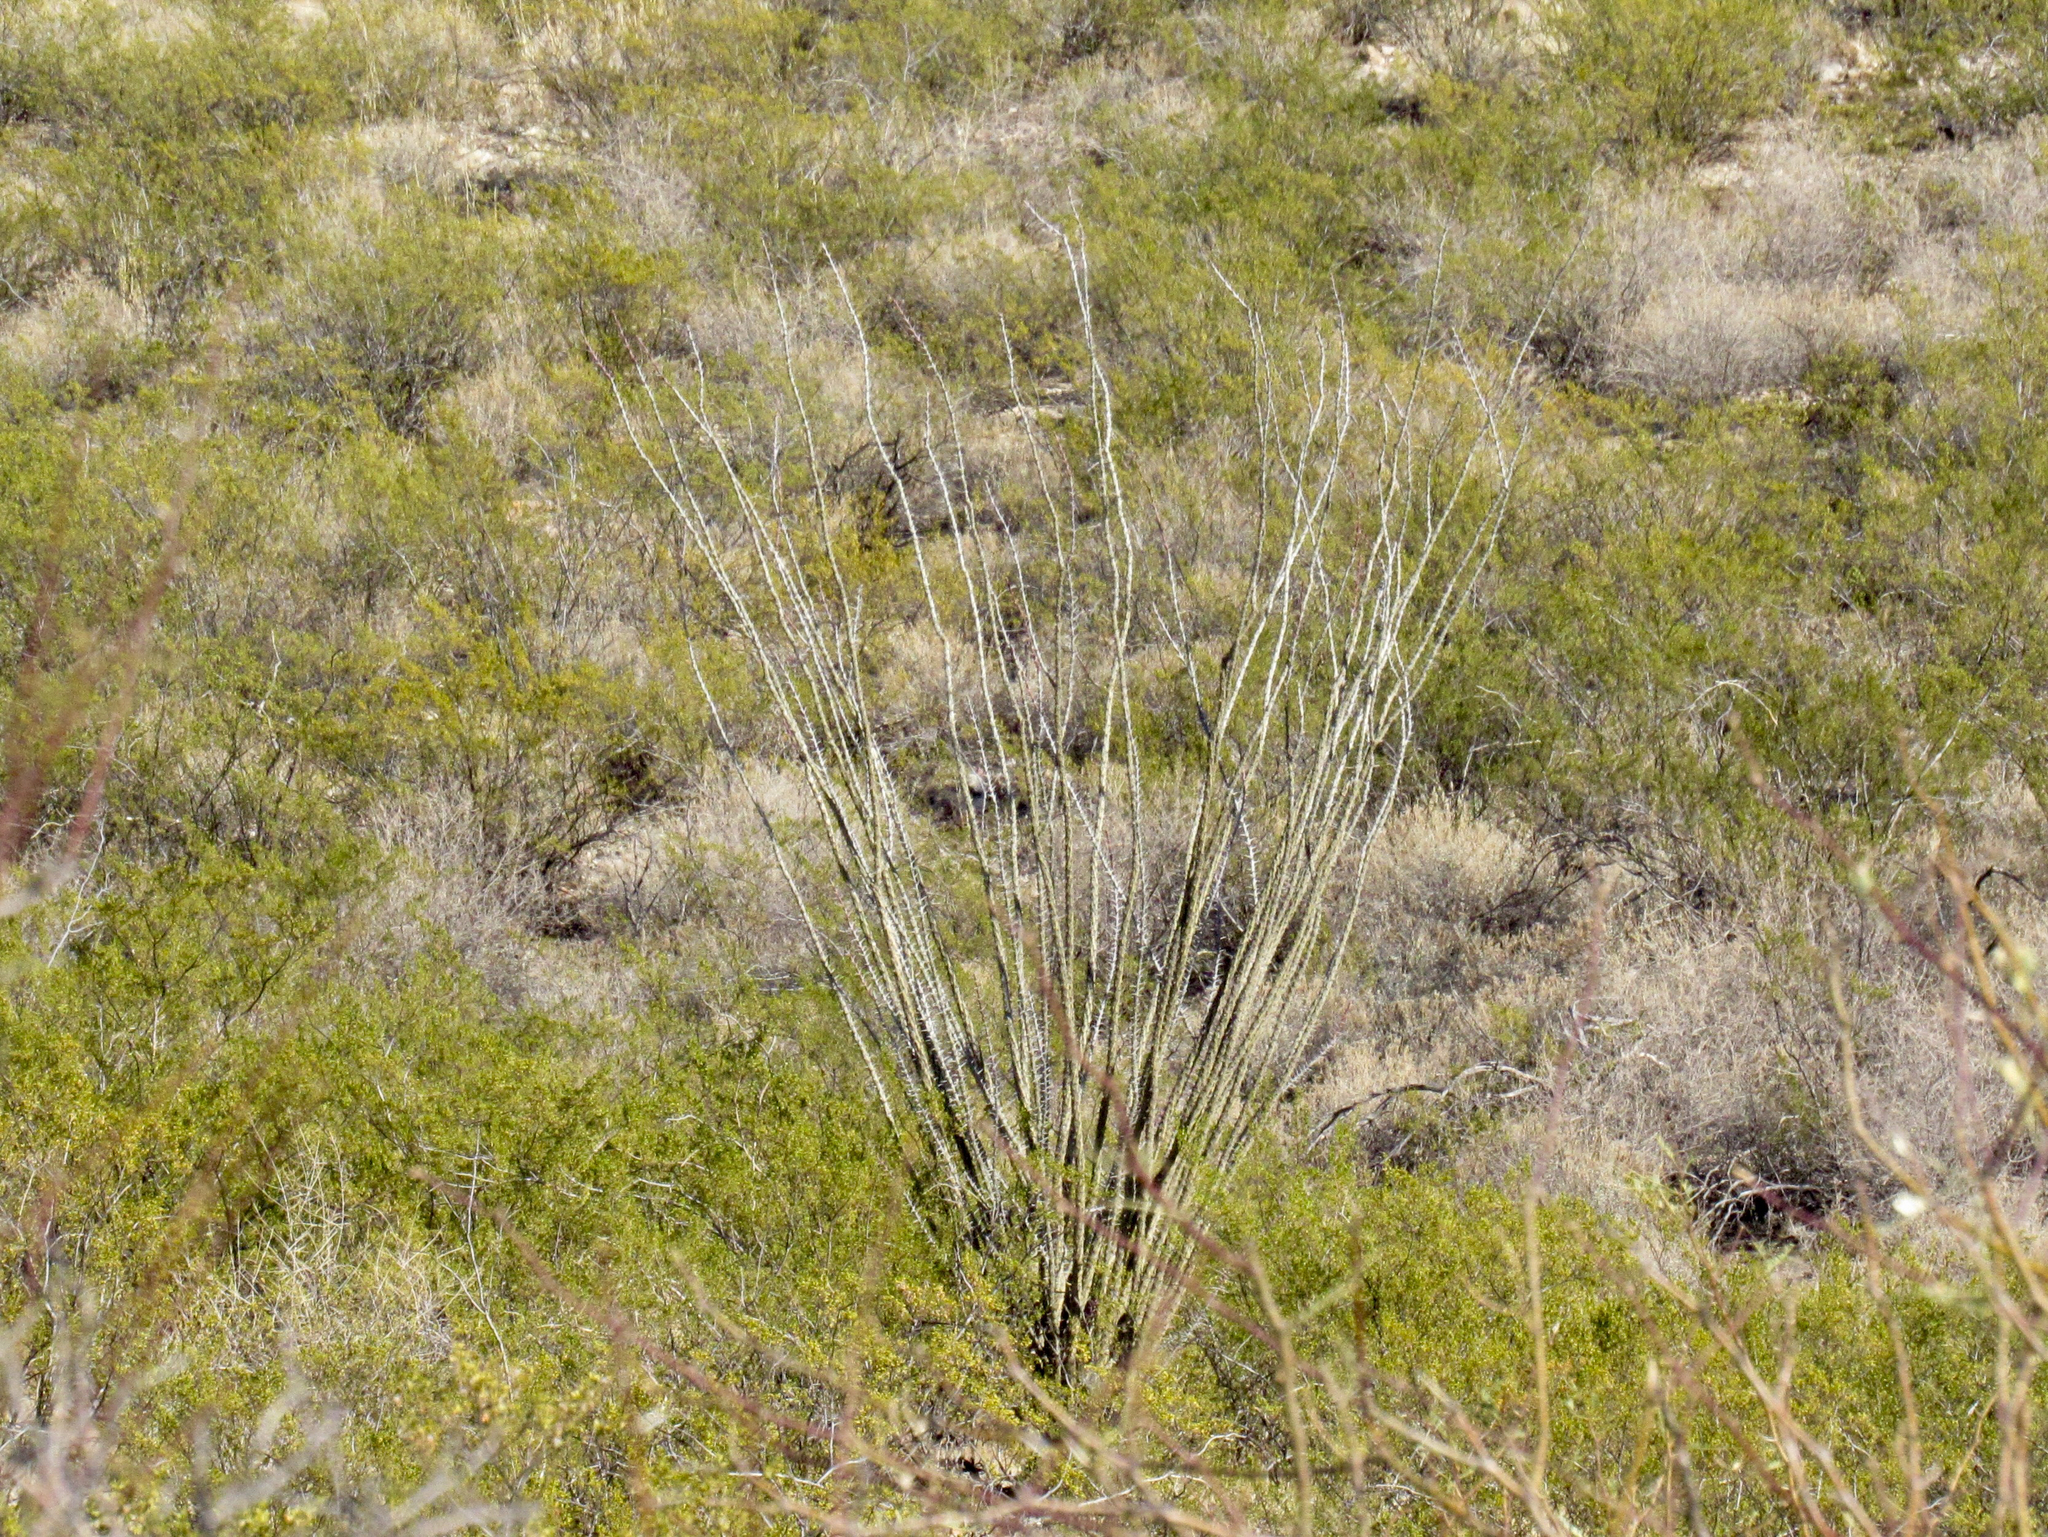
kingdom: Plantae
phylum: Tracheophyta
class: Magnoliopsida
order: Ericales
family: Fouquieriaceae
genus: Fouquieria
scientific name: Fouquieria splendens
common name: Vine-cactus
